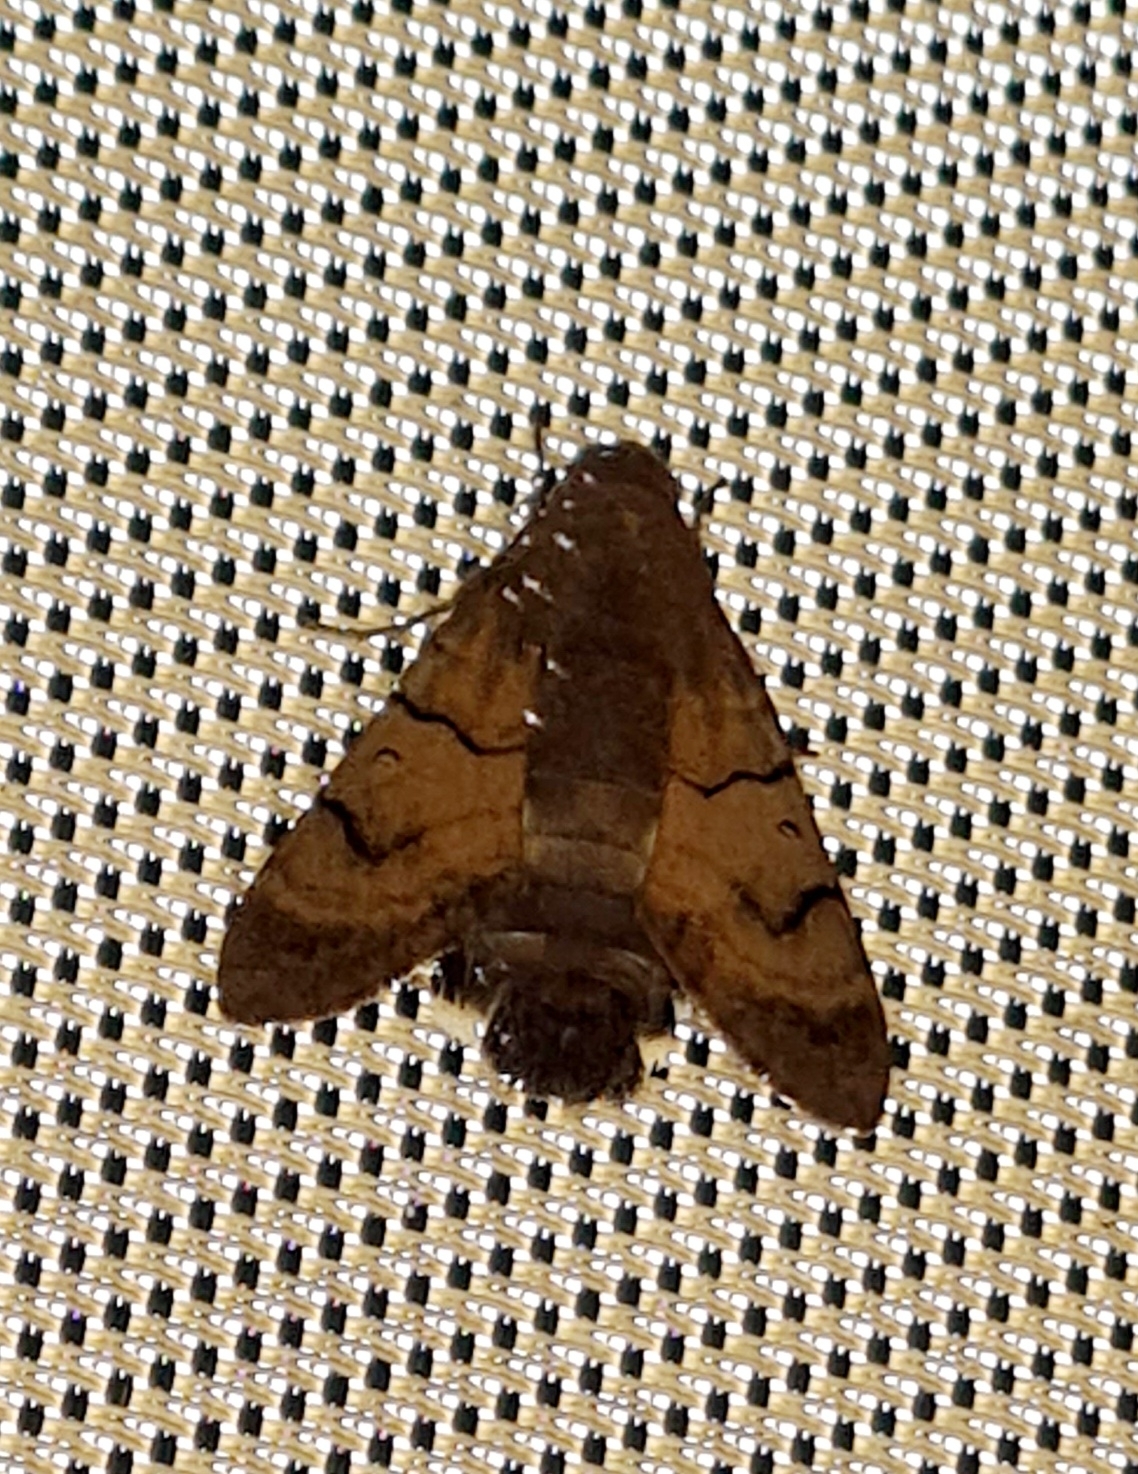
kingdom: Animalia
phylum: Arthropoda
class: Insecta
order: Lepidoptera
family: Sphingidae
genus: Macroglossum
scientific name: Macroglossum stellatarum
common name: Humming-bird hawk-moth
